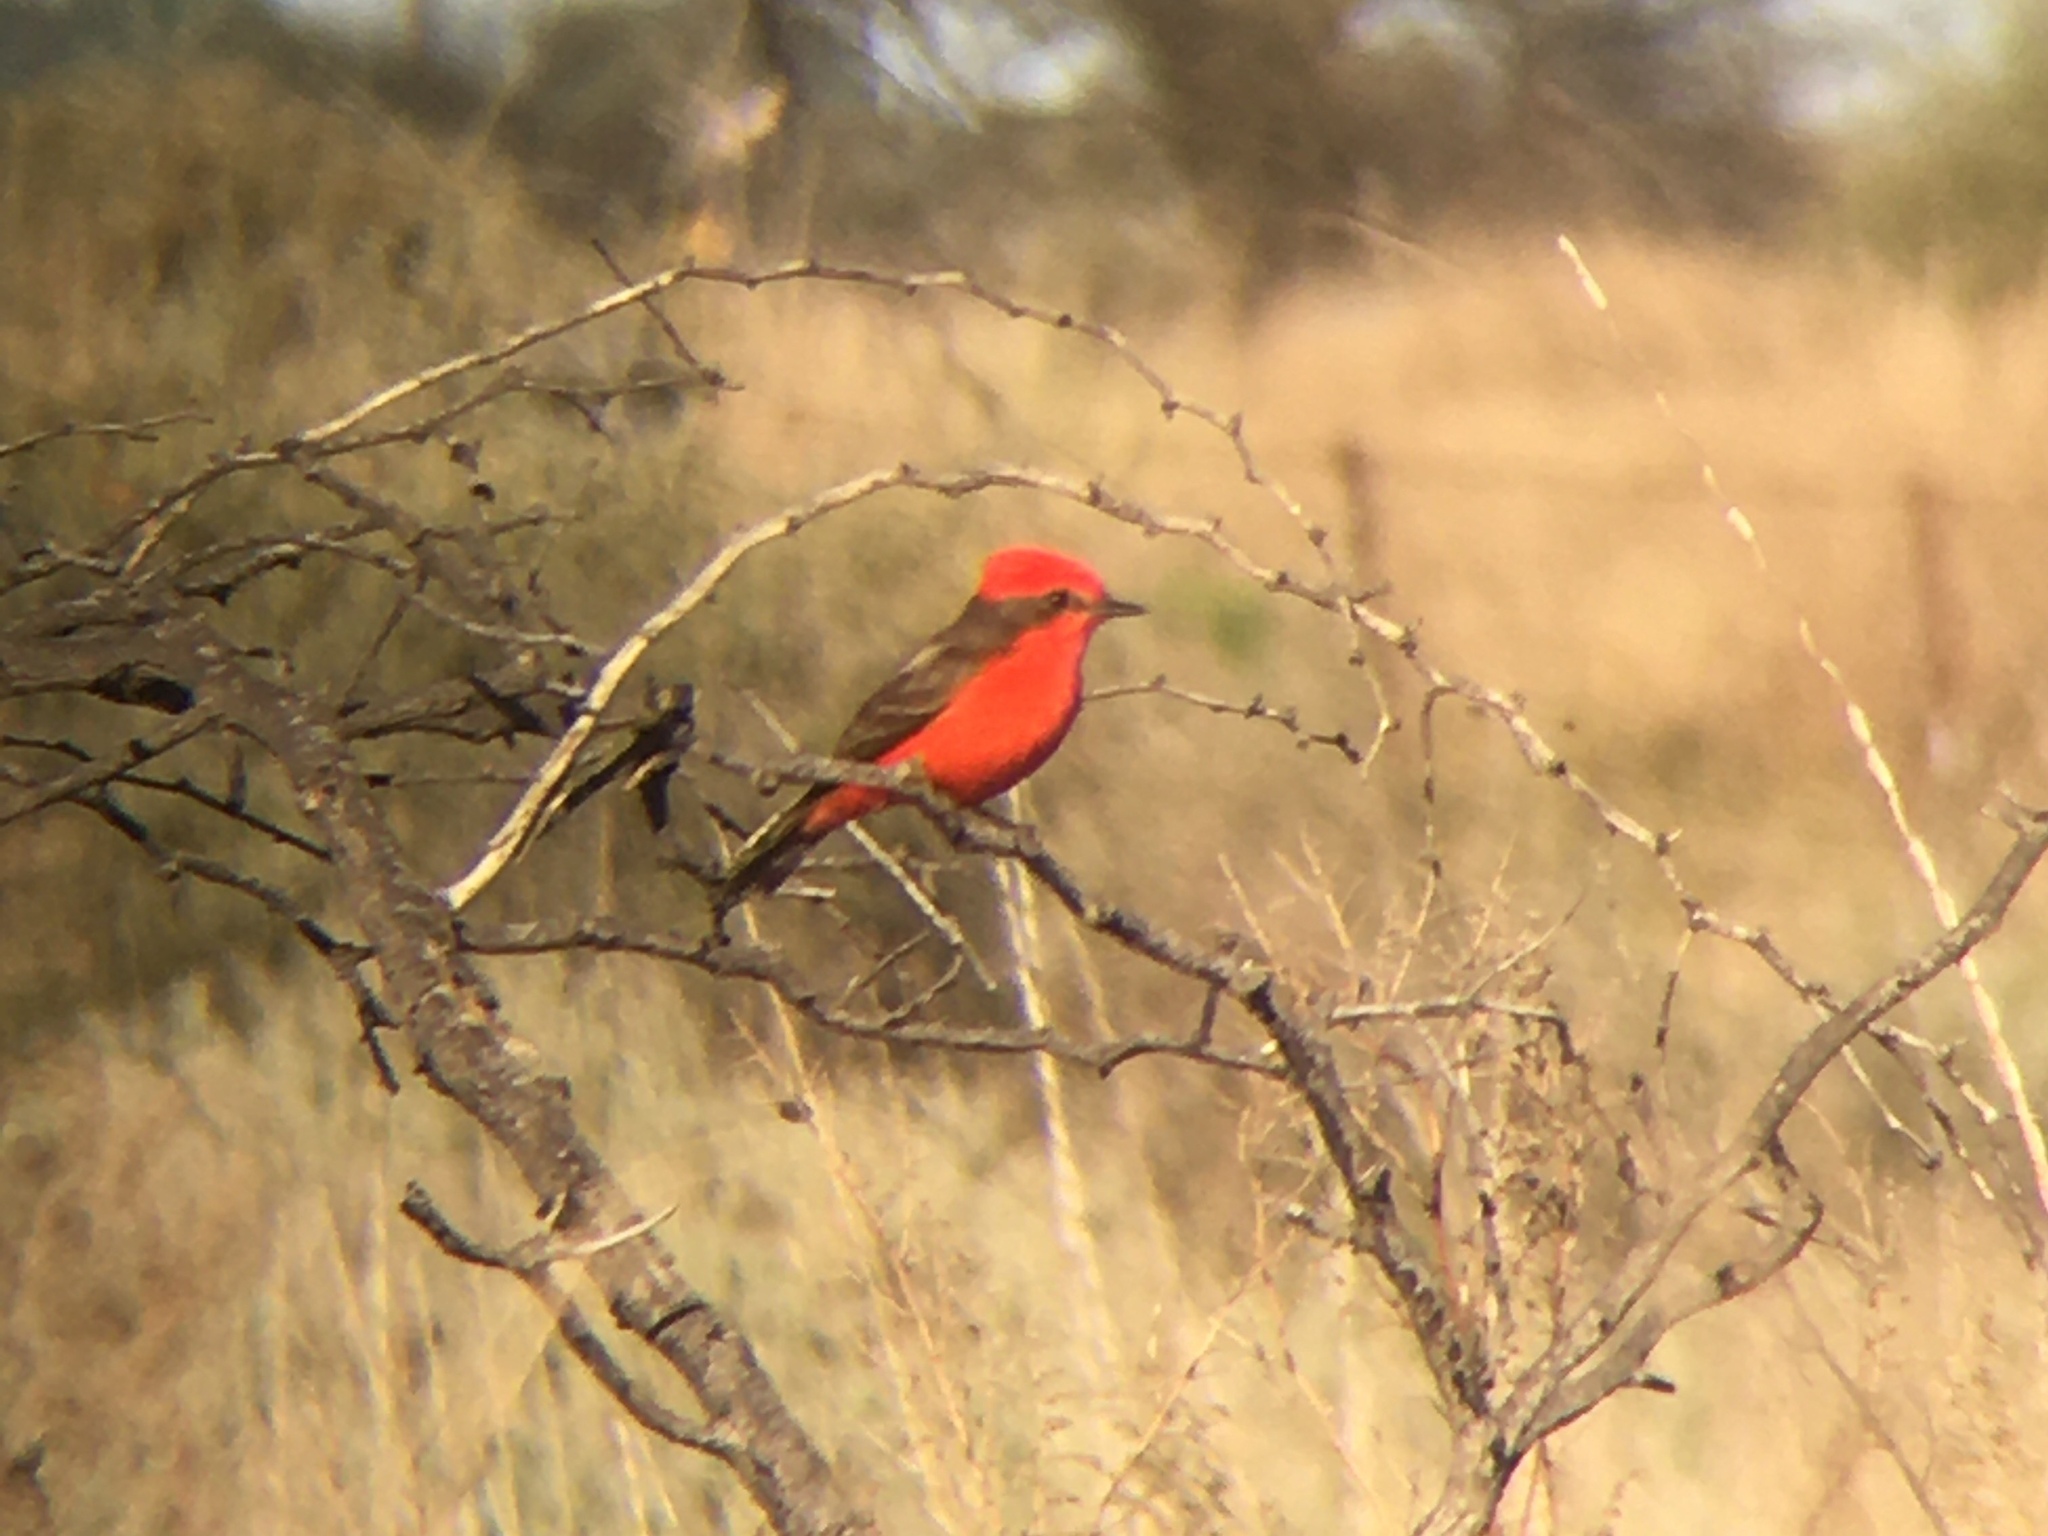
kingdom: Animalia
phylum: Chordata
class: Aves
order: Passeriformes
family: Tyrannidae
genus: Pyrocephalus
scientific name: Pyrocephalus rubinus
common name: Vermilion flycatcher
